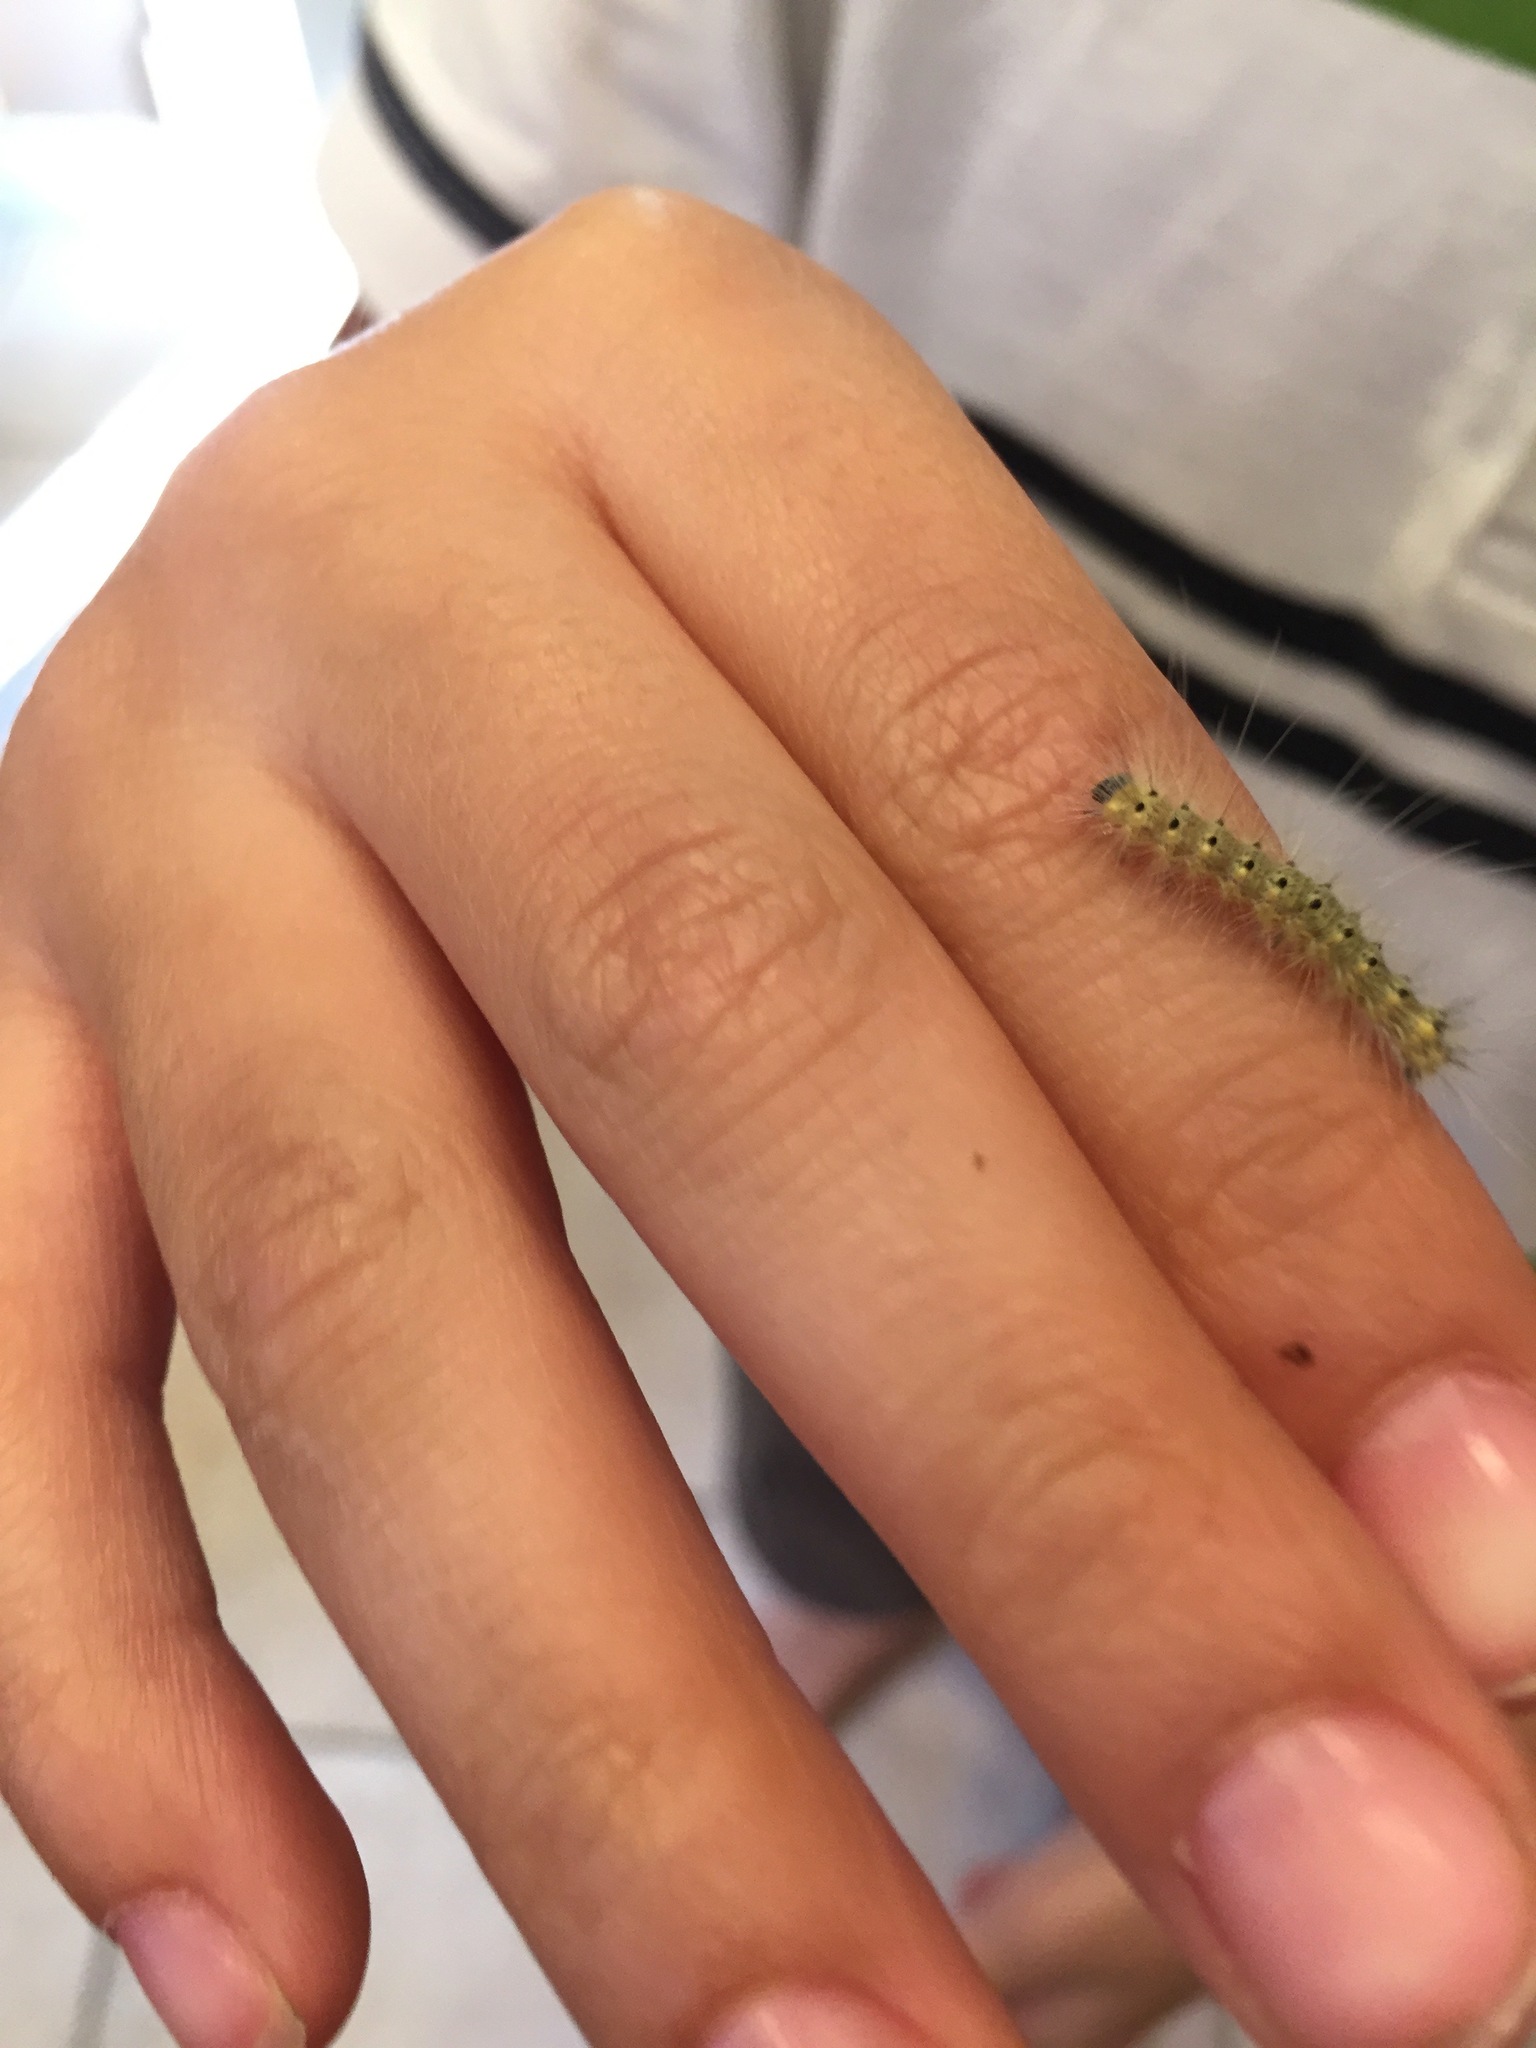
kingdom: Animalia
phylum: Arthropoda
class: Insecta
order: Lepidoptera
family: Erebidae
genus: Hyphantria
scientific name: Hyphantria cunea
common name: American white moth
